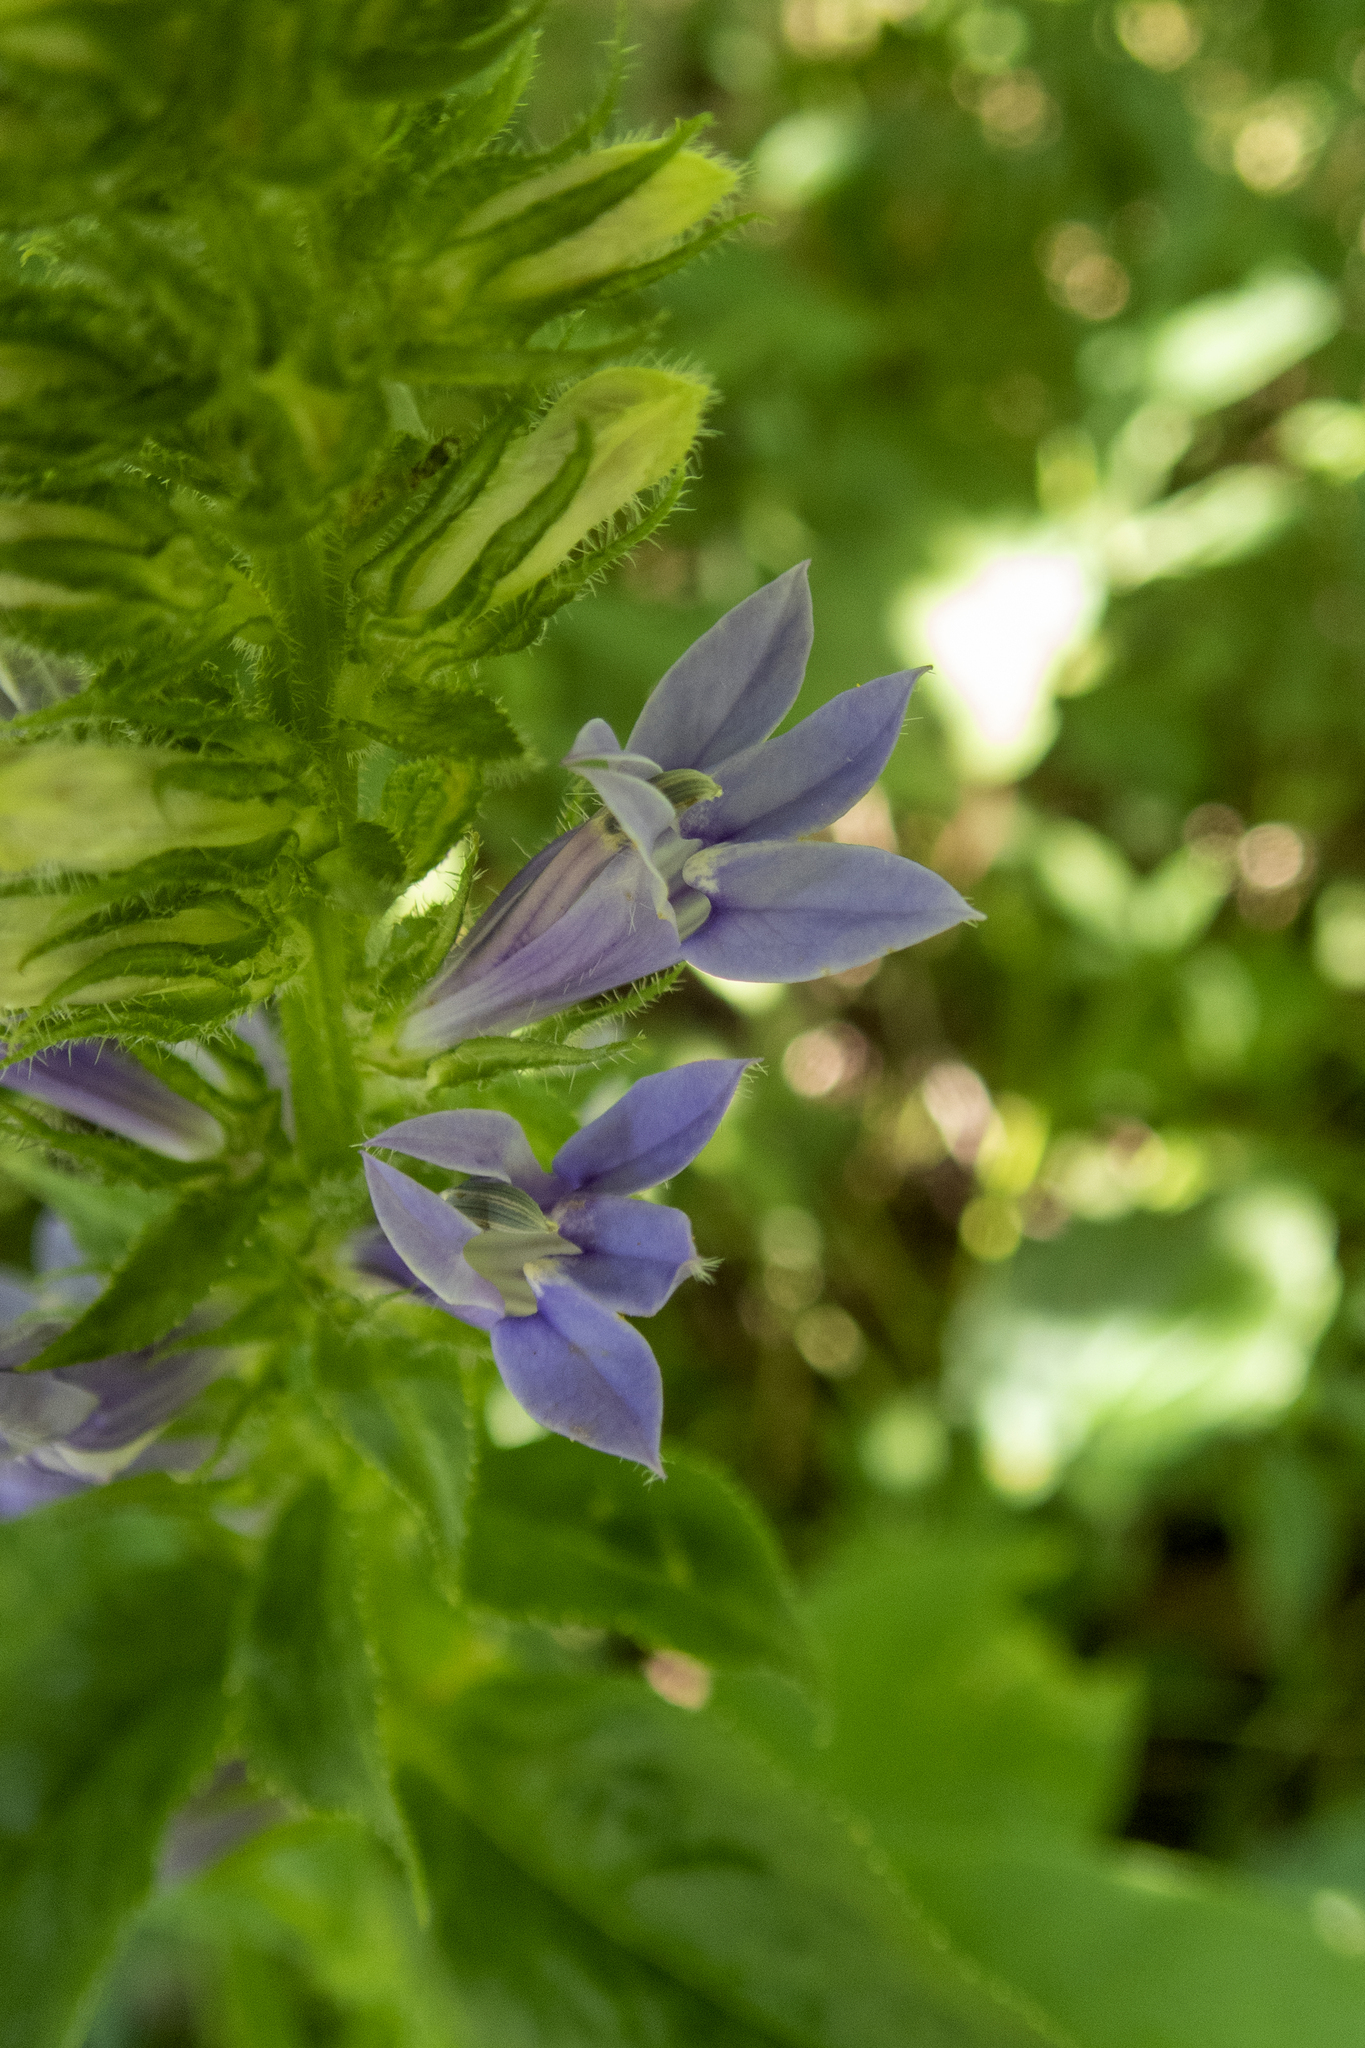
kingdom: Plantae
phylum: Tracheophyta
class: Magnoliopsida
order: Asterales
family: Campanulaceae
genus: Lobelia
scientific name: Lobelia siphilitica
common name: Great lobelia
